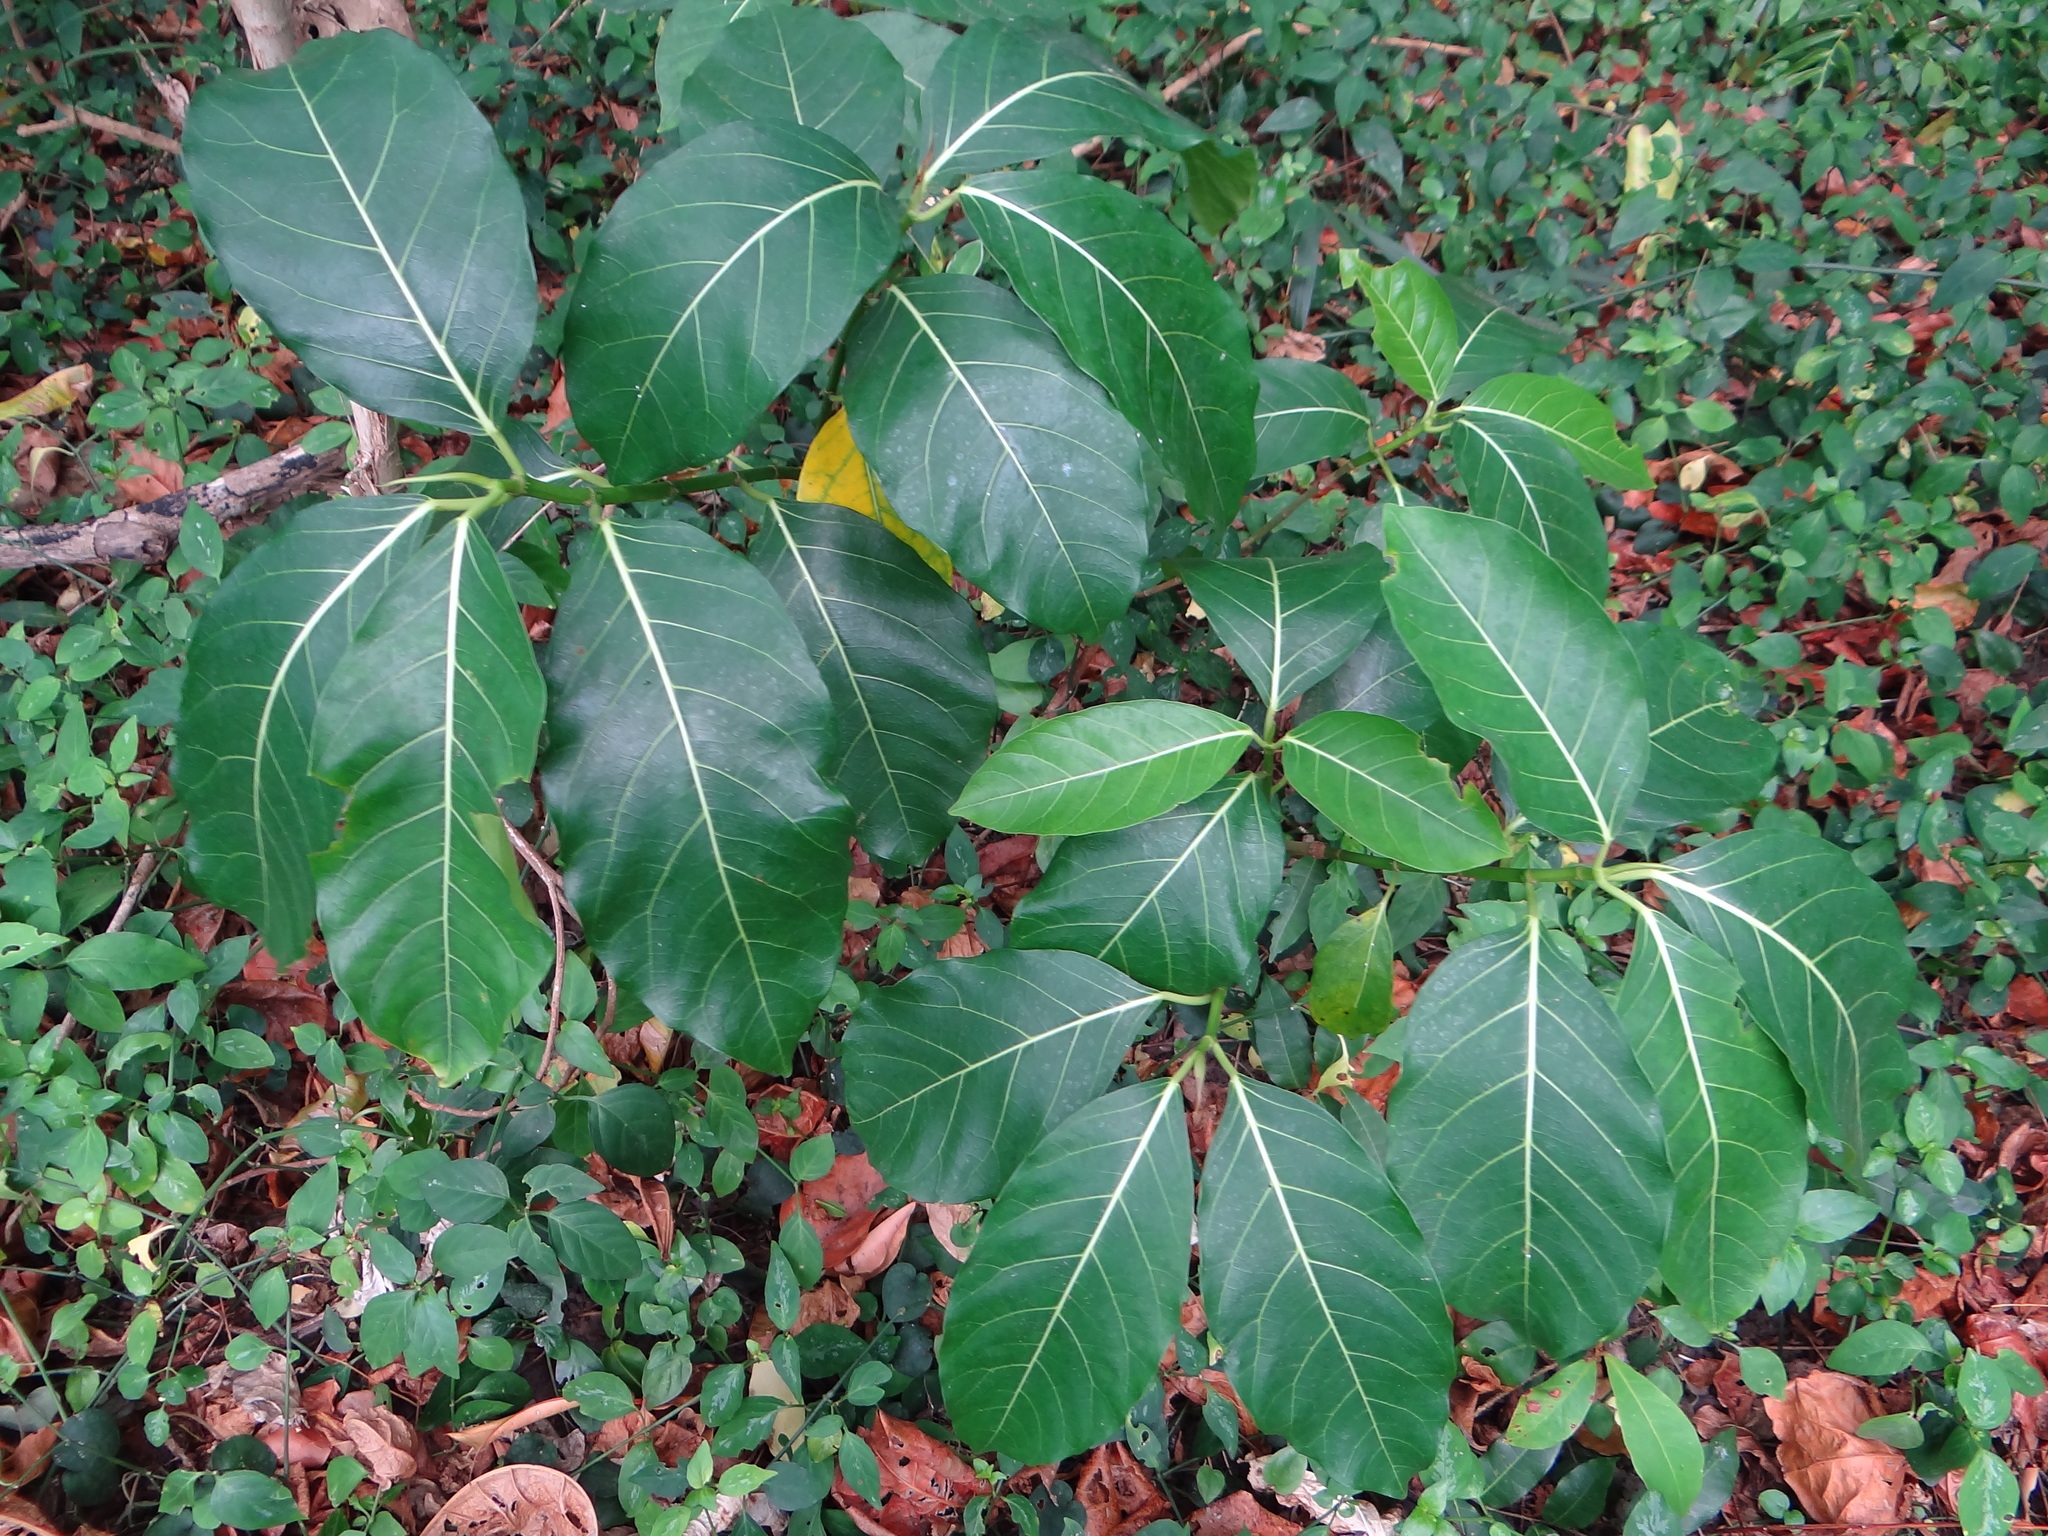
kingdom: Plantae
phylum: Tracheophyta
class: Magnoliopsida
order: Rosales
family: Moraceae
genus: Ficus
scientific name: Ficus septica
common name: Septic fig
